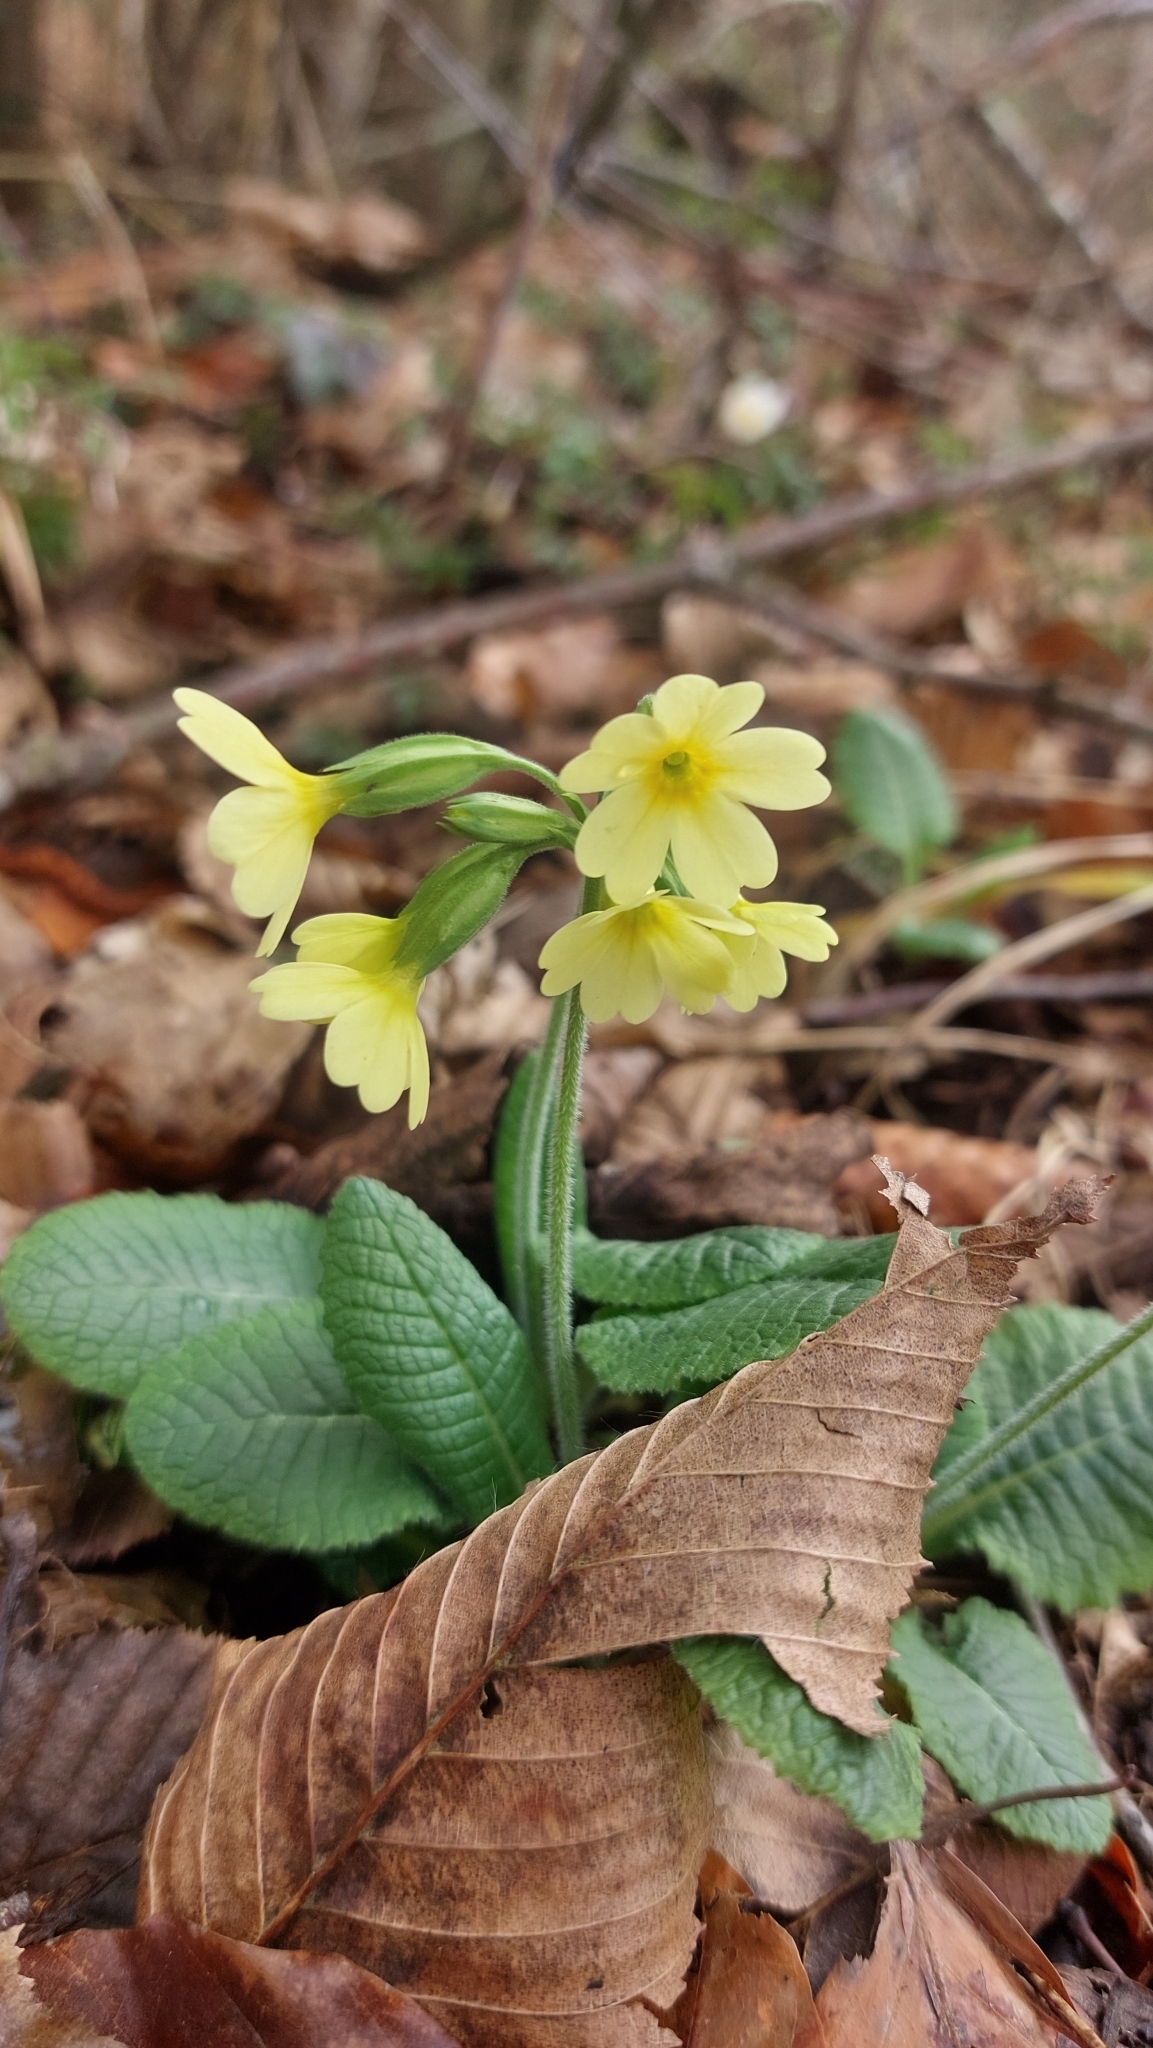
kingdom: Plantae
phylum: Tracheophyta
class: Magnoliopsida
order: Ericales
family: Primulaceae
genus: Primula
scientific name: Primula elatior
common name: Oxlip
